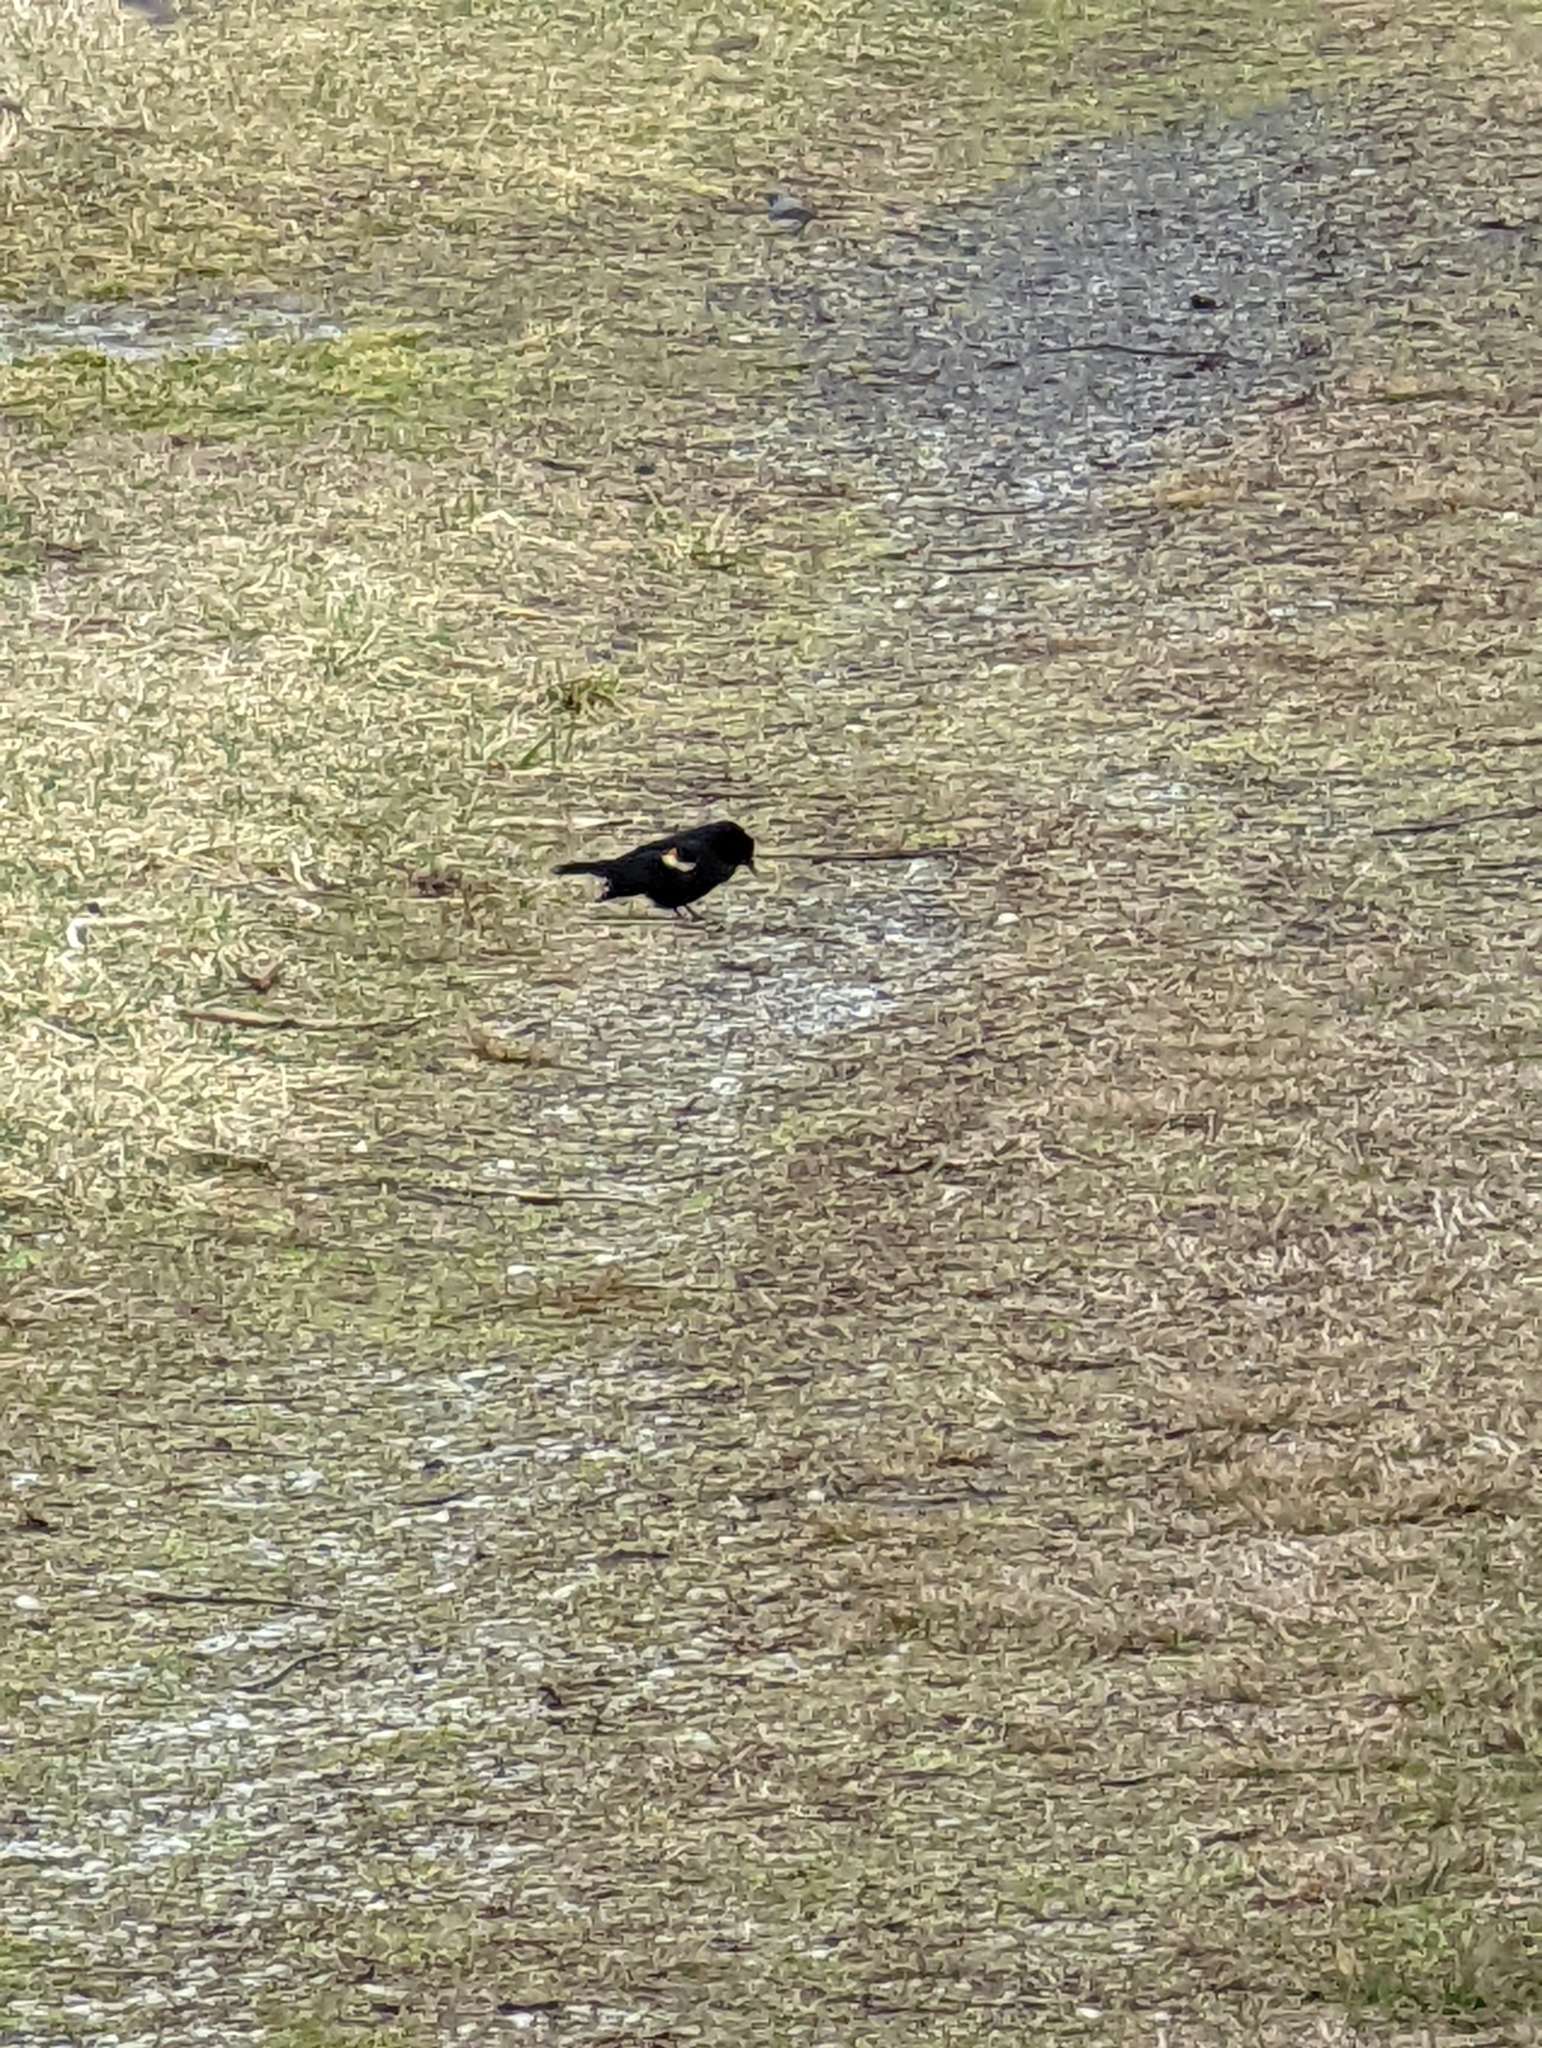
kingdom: Animalia
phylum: Chordata
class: Aves
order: Passeriformes
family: Icteridae
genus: Agelaius
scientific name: Agelaius phoeniceus
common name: Red-winged blackbird
